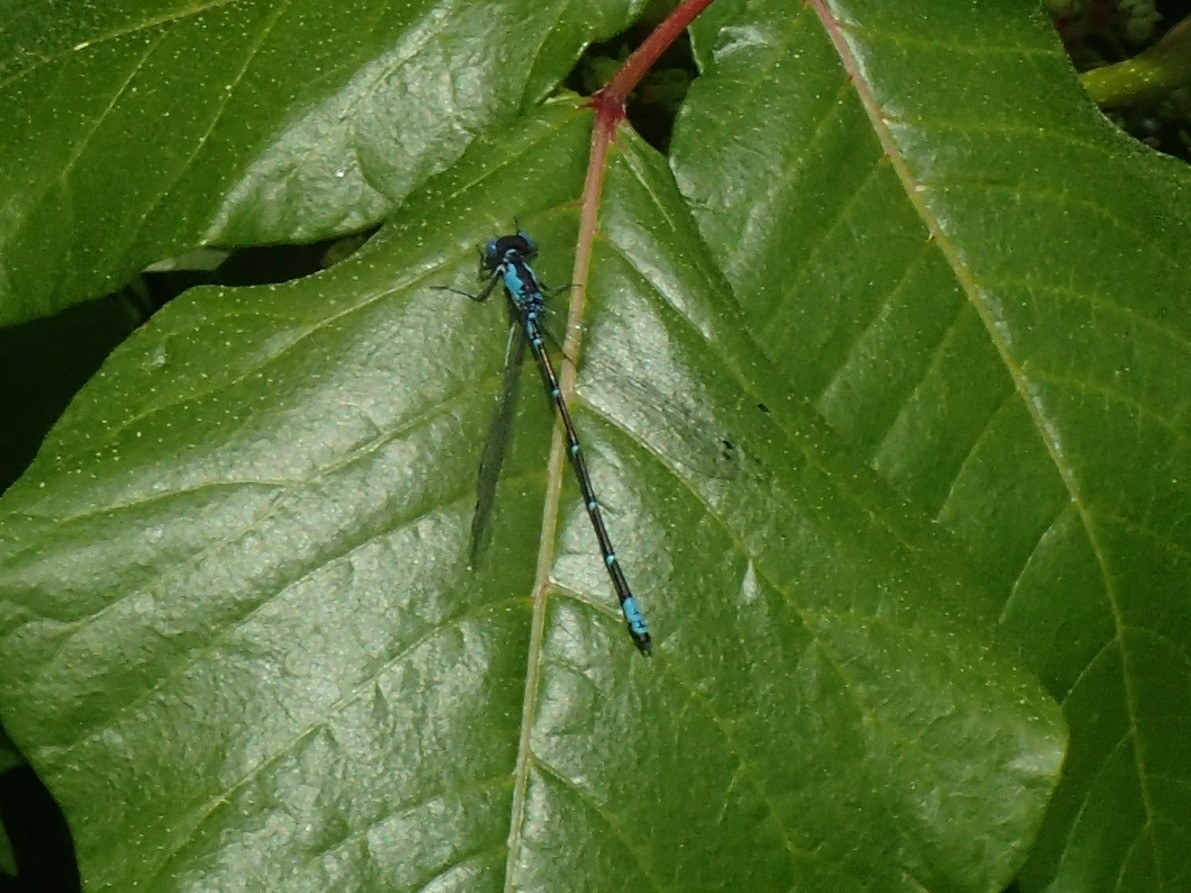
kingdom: Animalia
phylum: Arthropoda
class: Insecta
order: Odonata
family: Coenagrionidae
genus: Chromagrion
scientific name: Chromagrion conditum
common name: Aurora damsel
